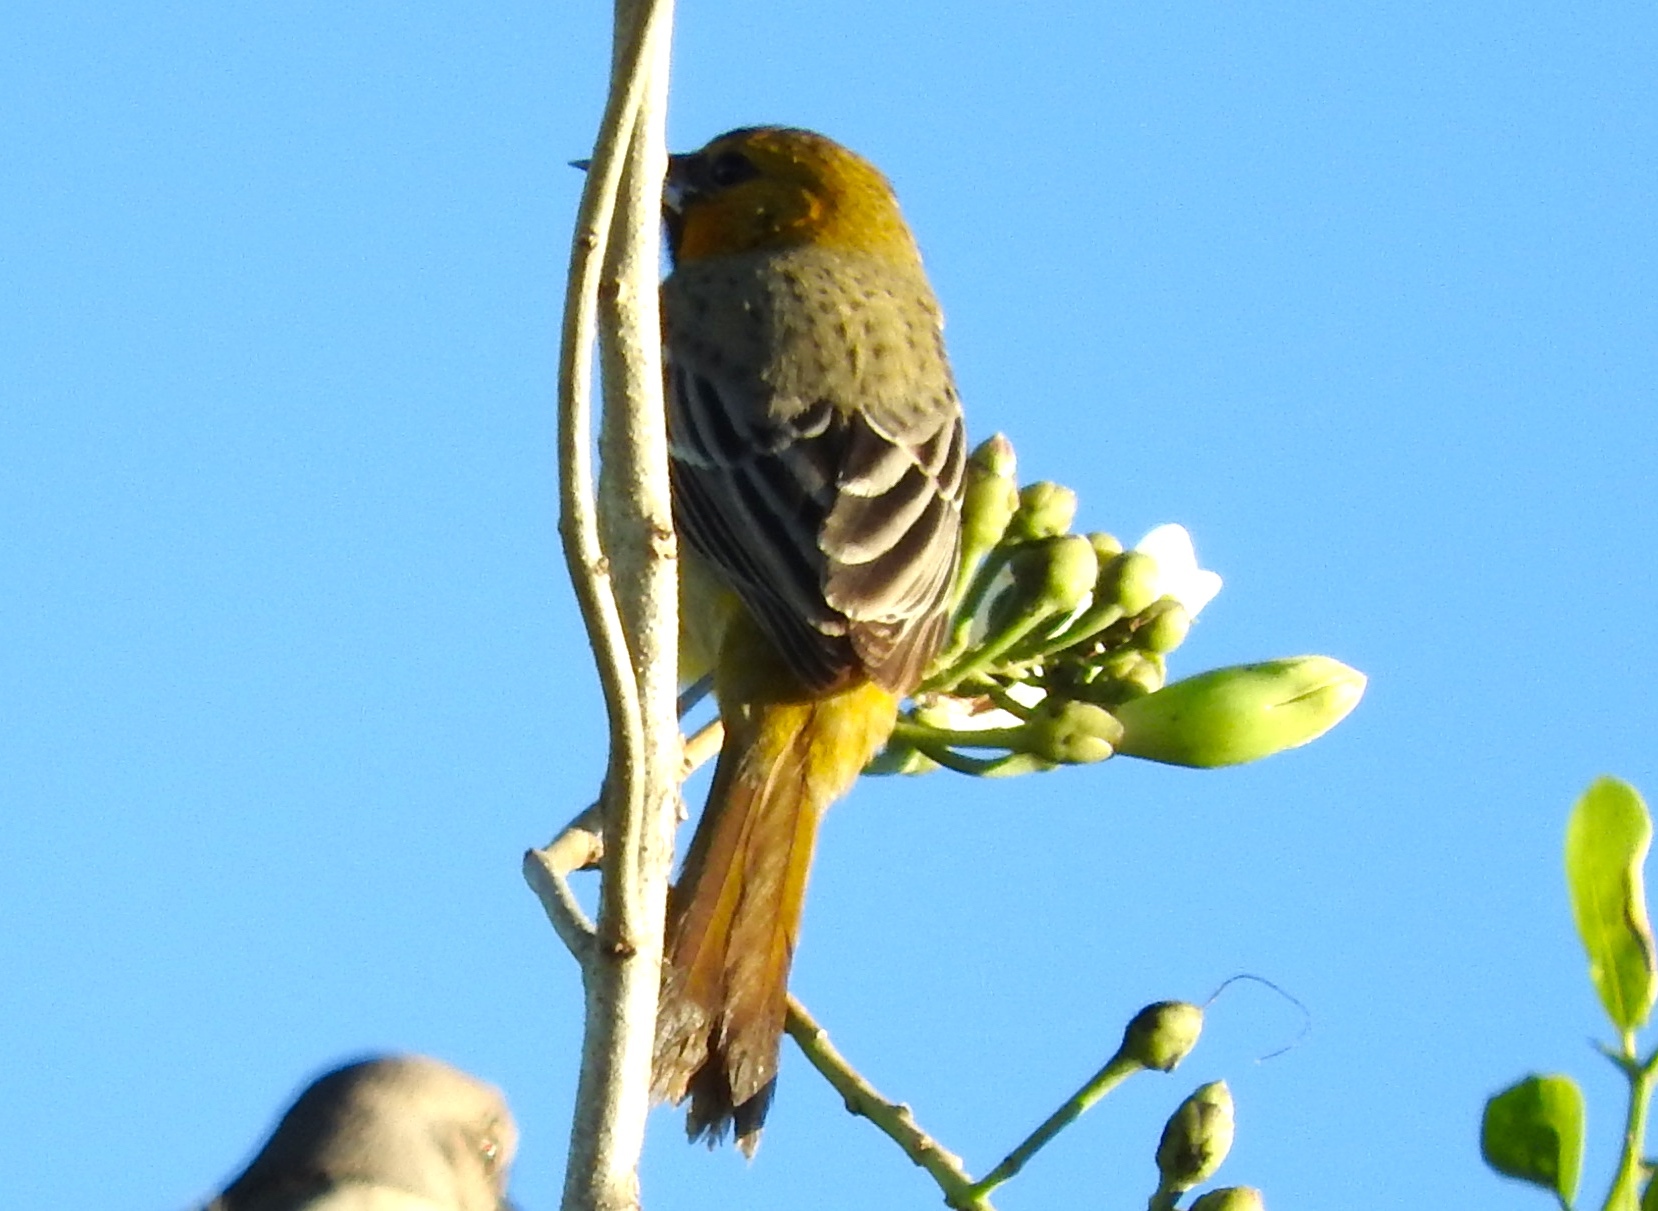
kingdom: Animalia
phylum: Chordata
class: Aves
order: Passeriformes
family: Icteridae
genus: Icterus
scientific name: Icterus pustulatus
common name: Streak-backed oriole
